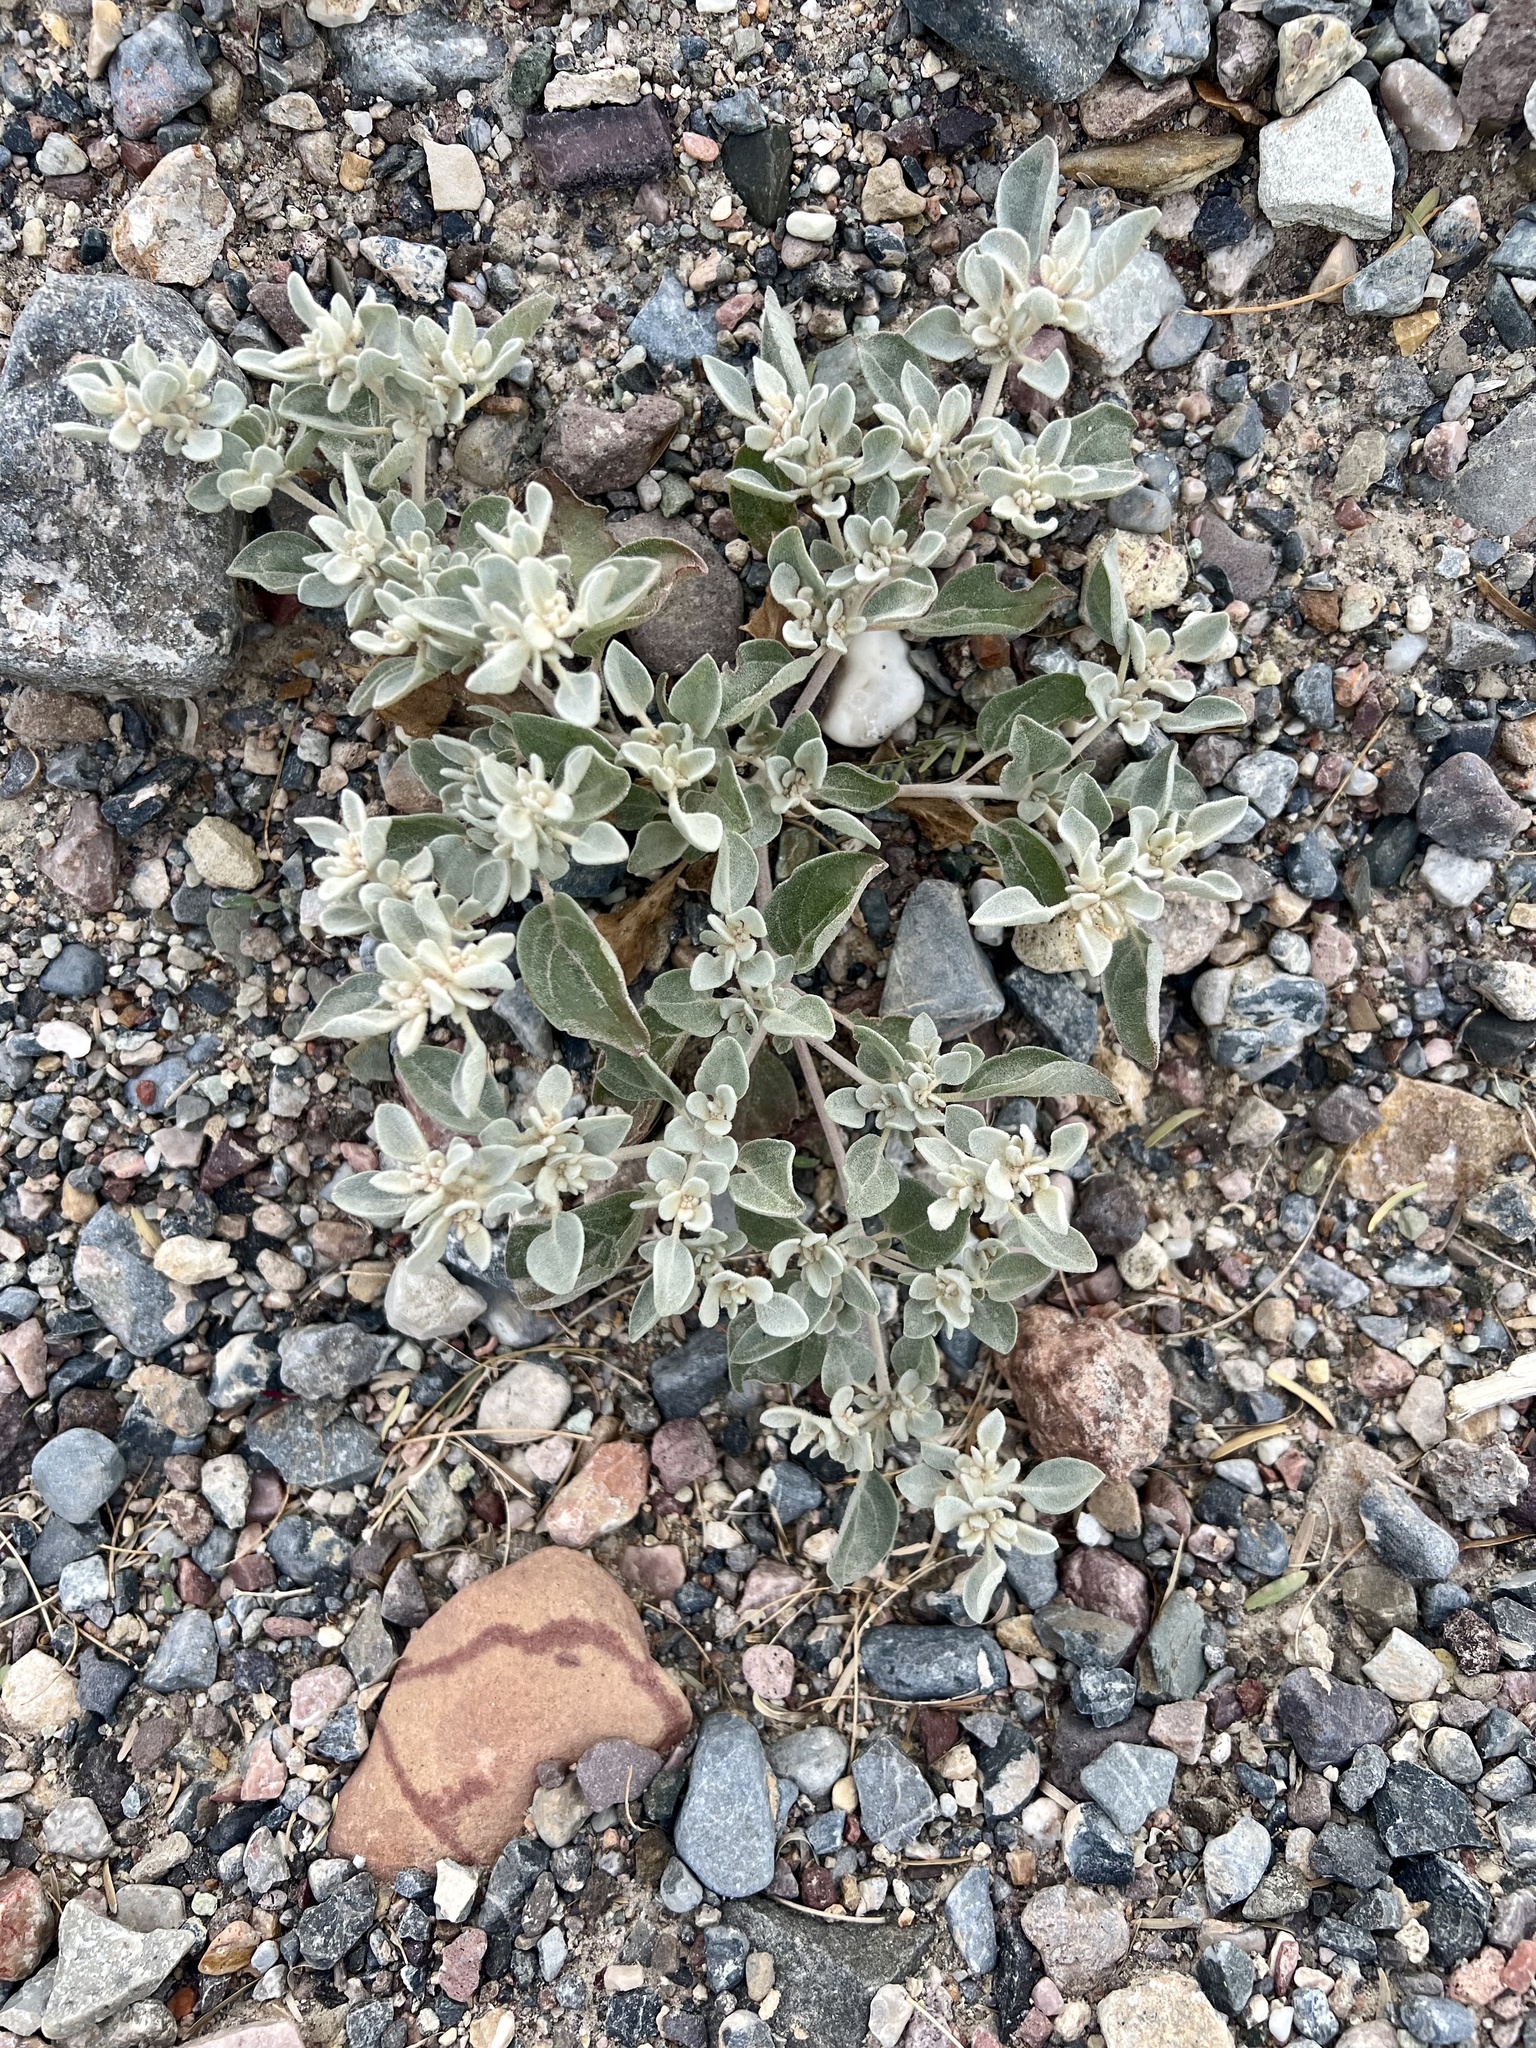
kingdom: Plantae
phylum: Tracheophyta
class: Magnoliopsida
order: Caryophyllales
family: Amaranthaceae
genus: Tidestromia
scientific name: Tidestromia suffruticosa
